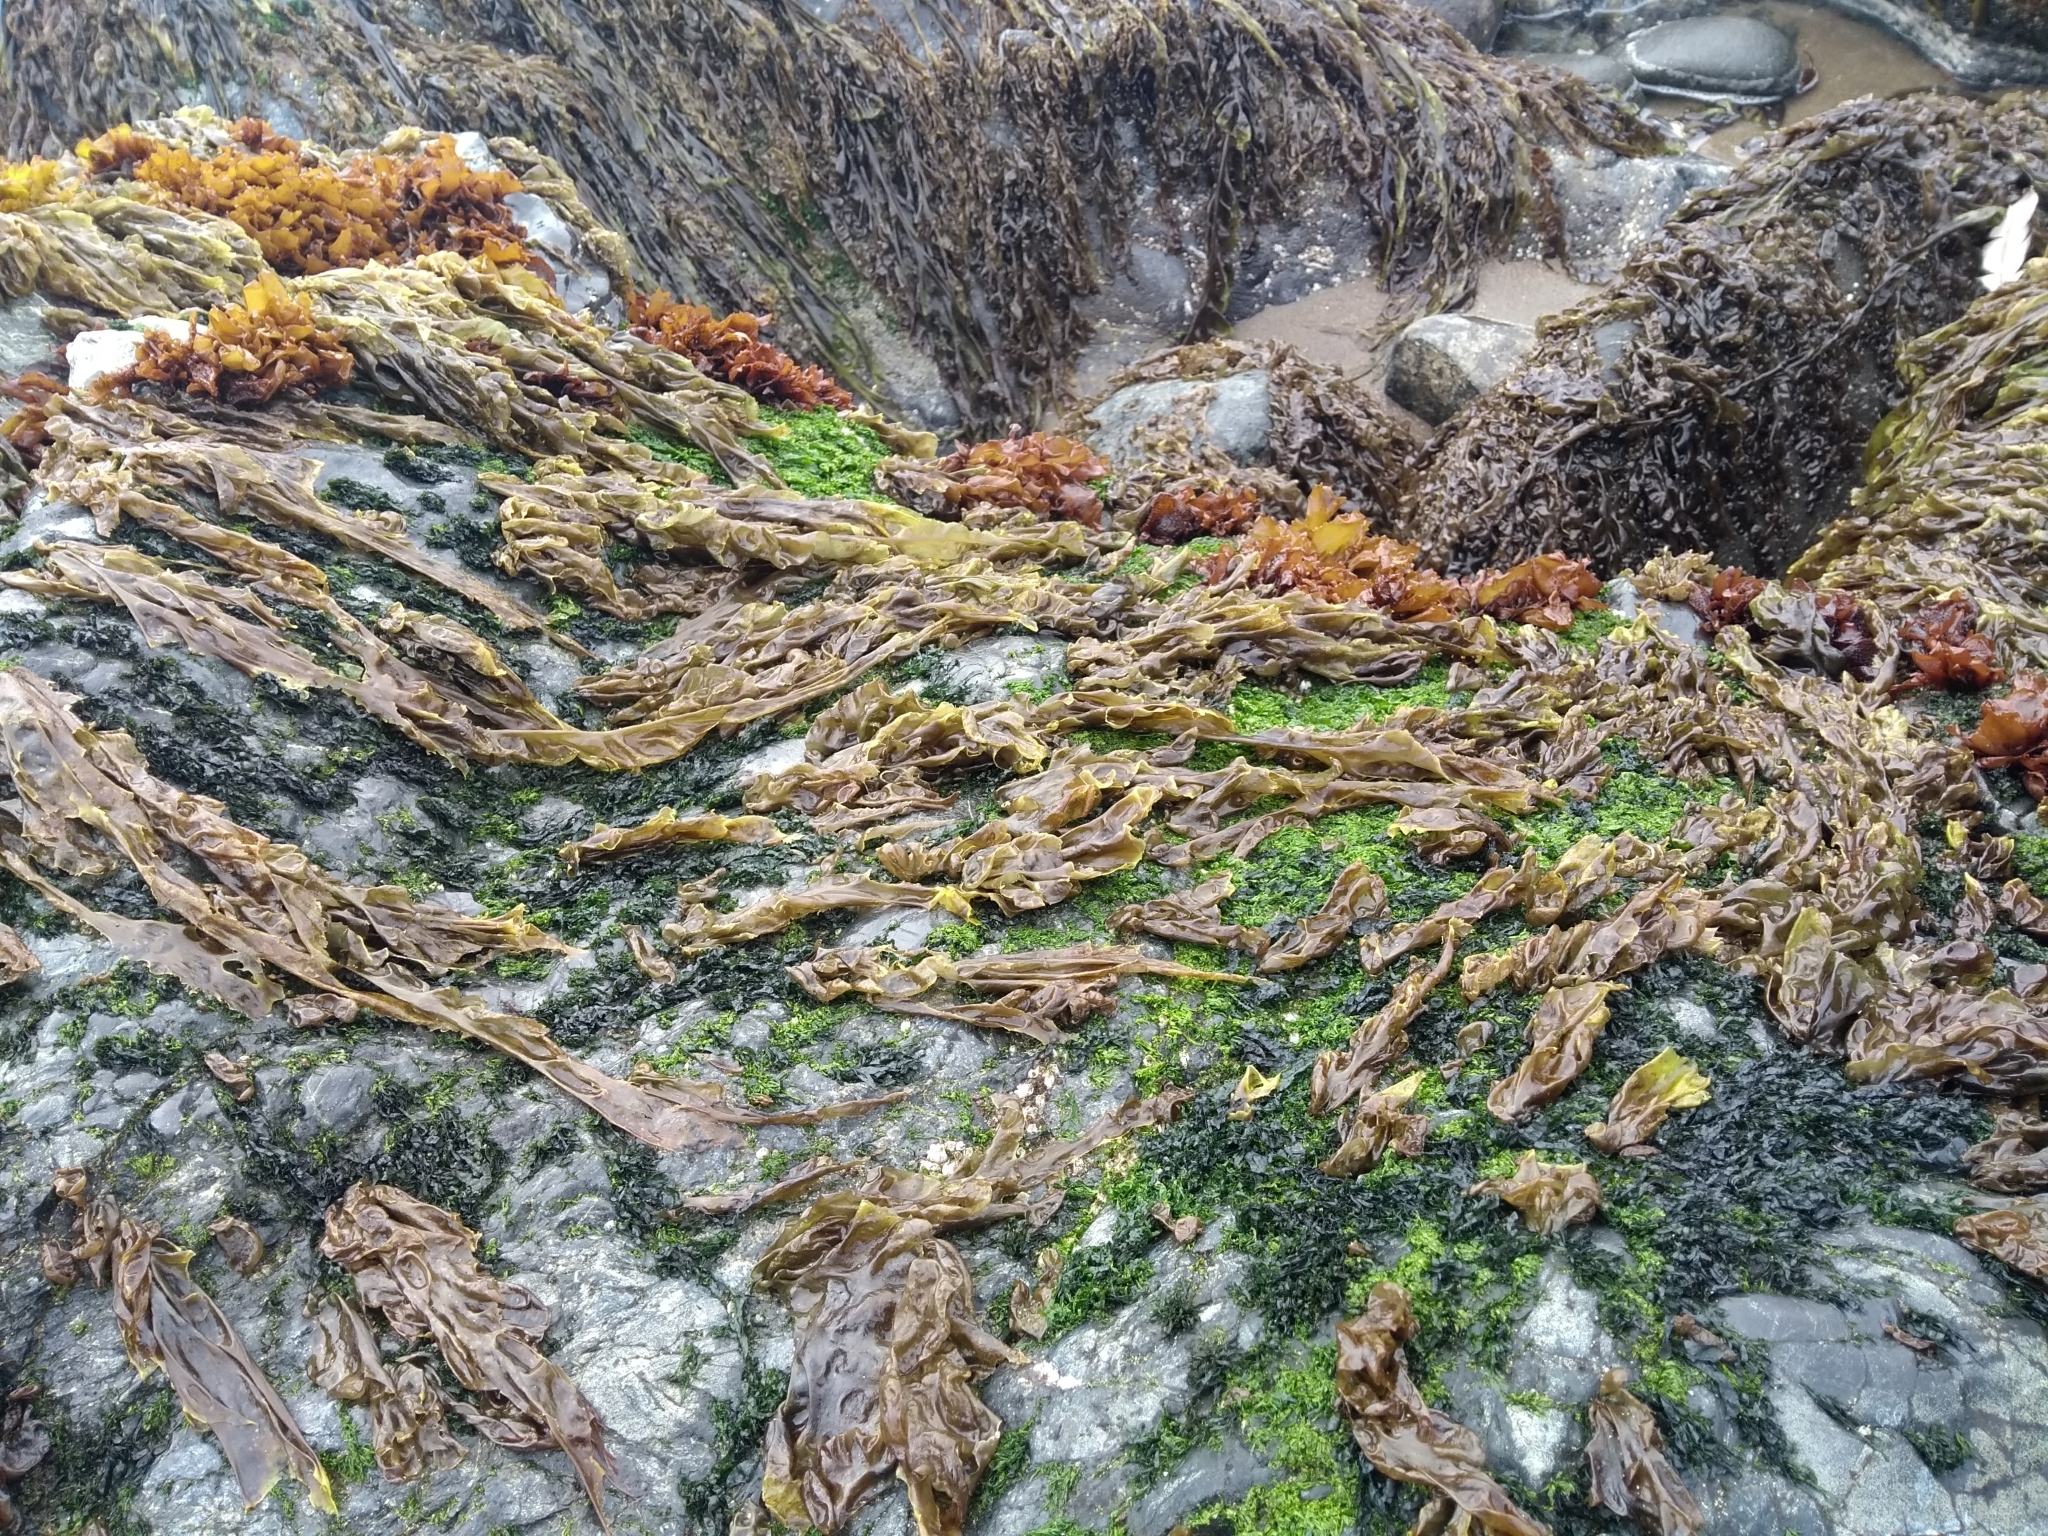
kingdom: Plantae
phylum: Rhodophyta
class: Bangiophyceae
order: Bangiales
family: Bangiaceae
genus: Pyropia
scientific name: Pyropia
